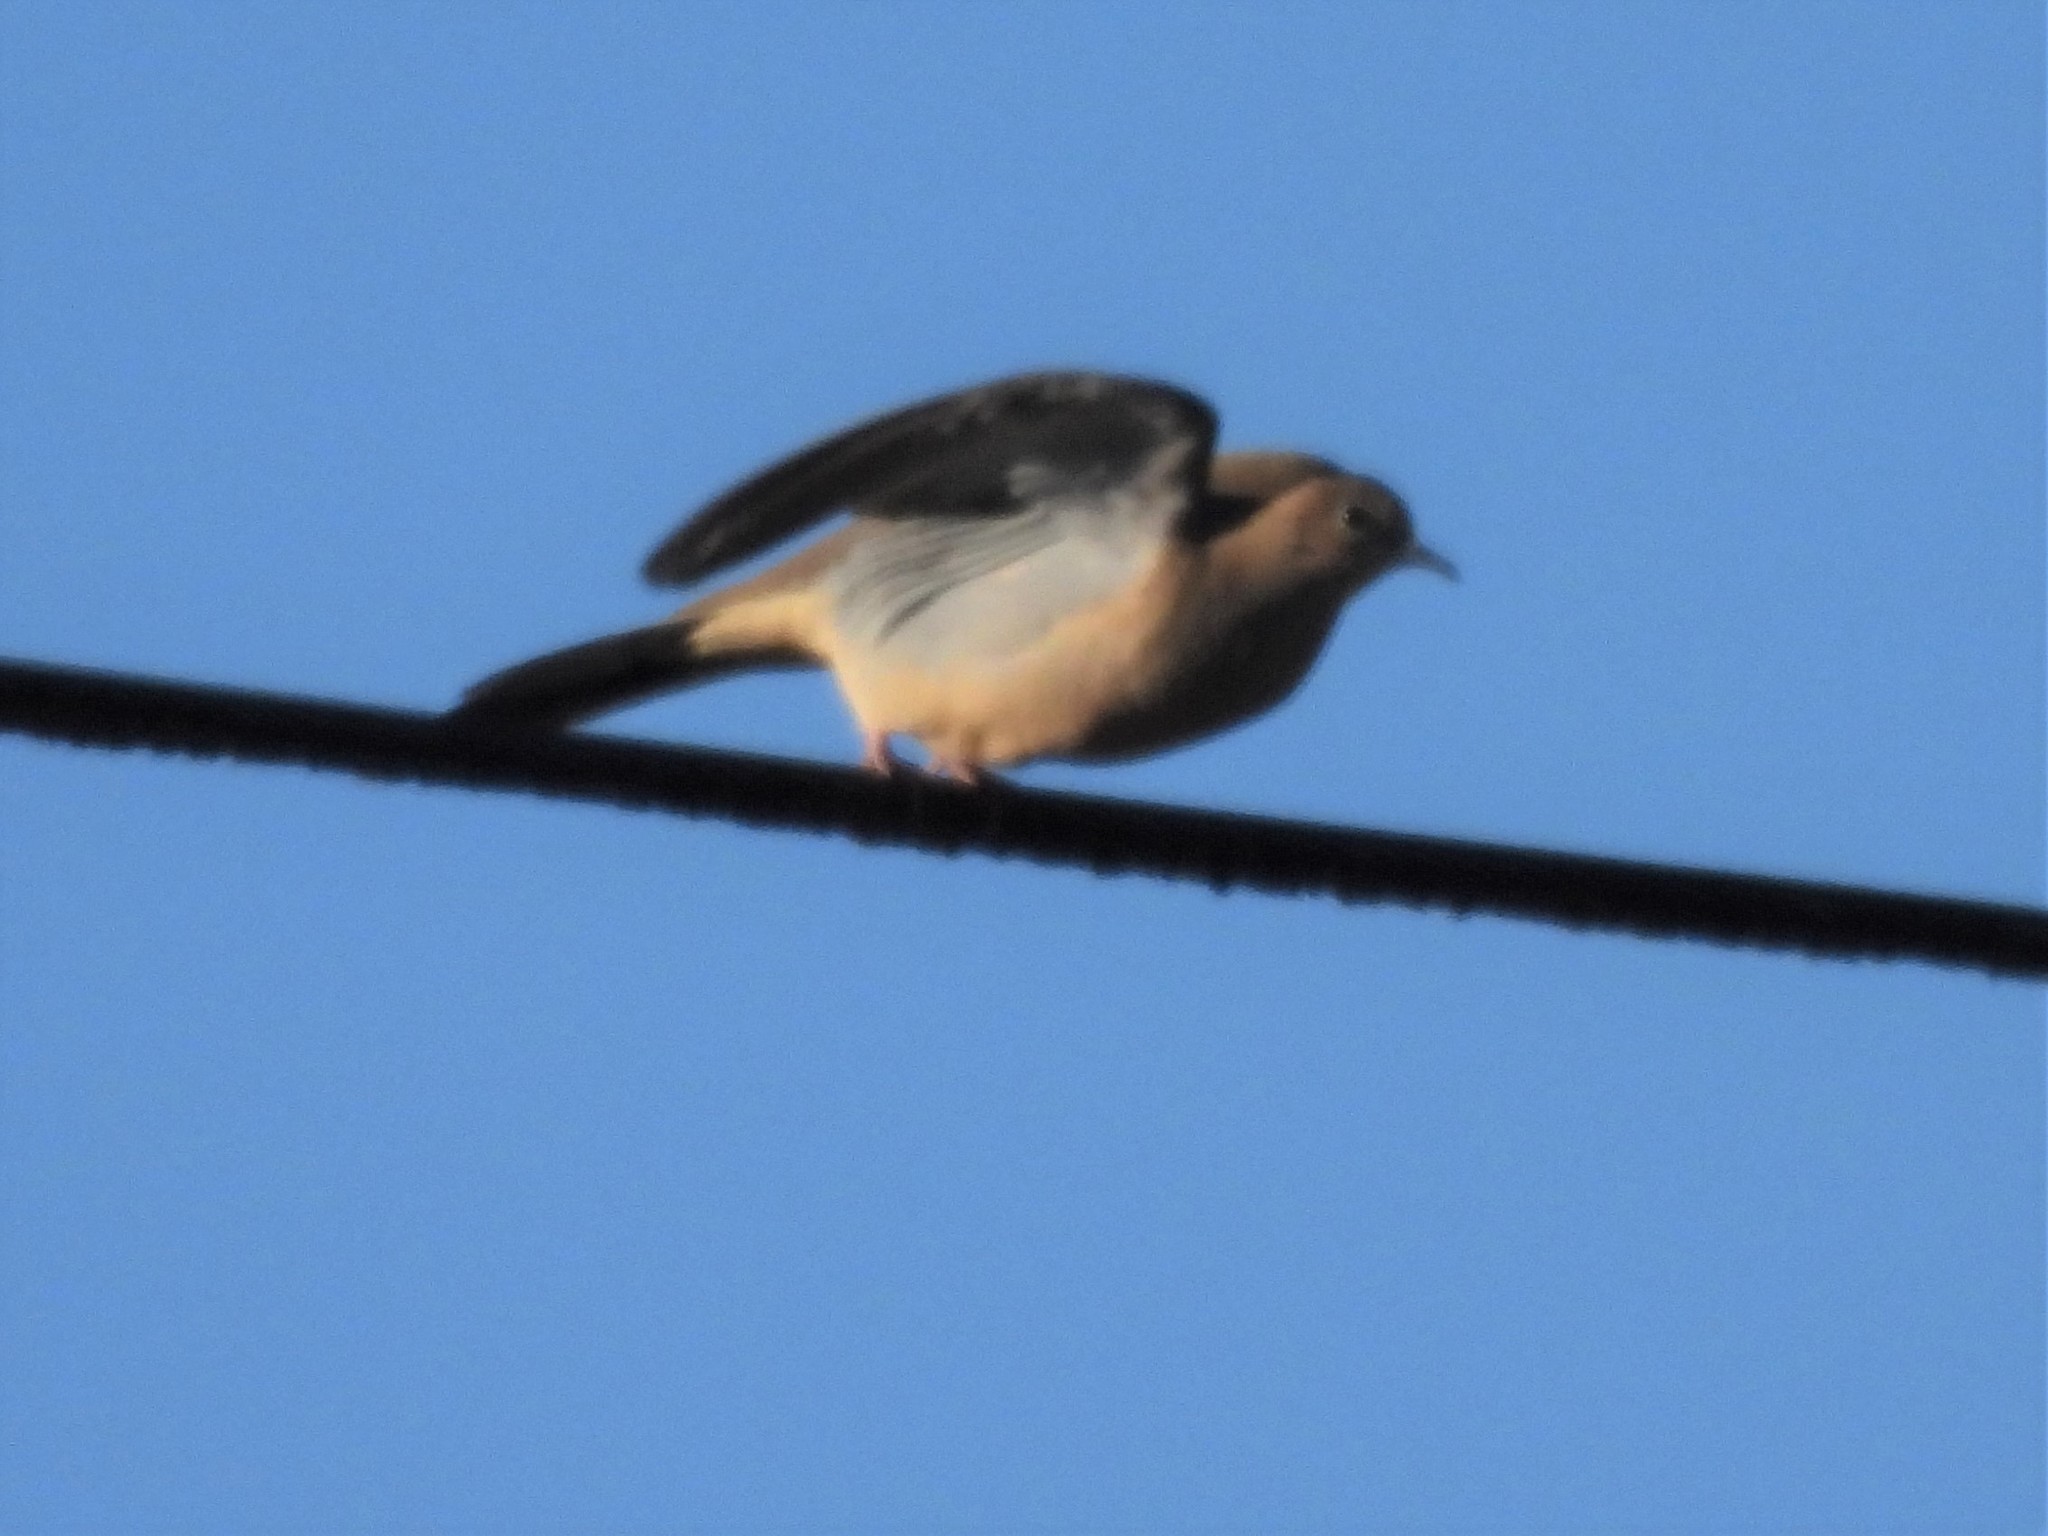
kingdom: Animalia
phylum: Chordata
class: Aves
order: Columbiformes
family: Columbidae
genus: Zenaida
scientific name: Zenaida macroura
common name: Mourning dove
